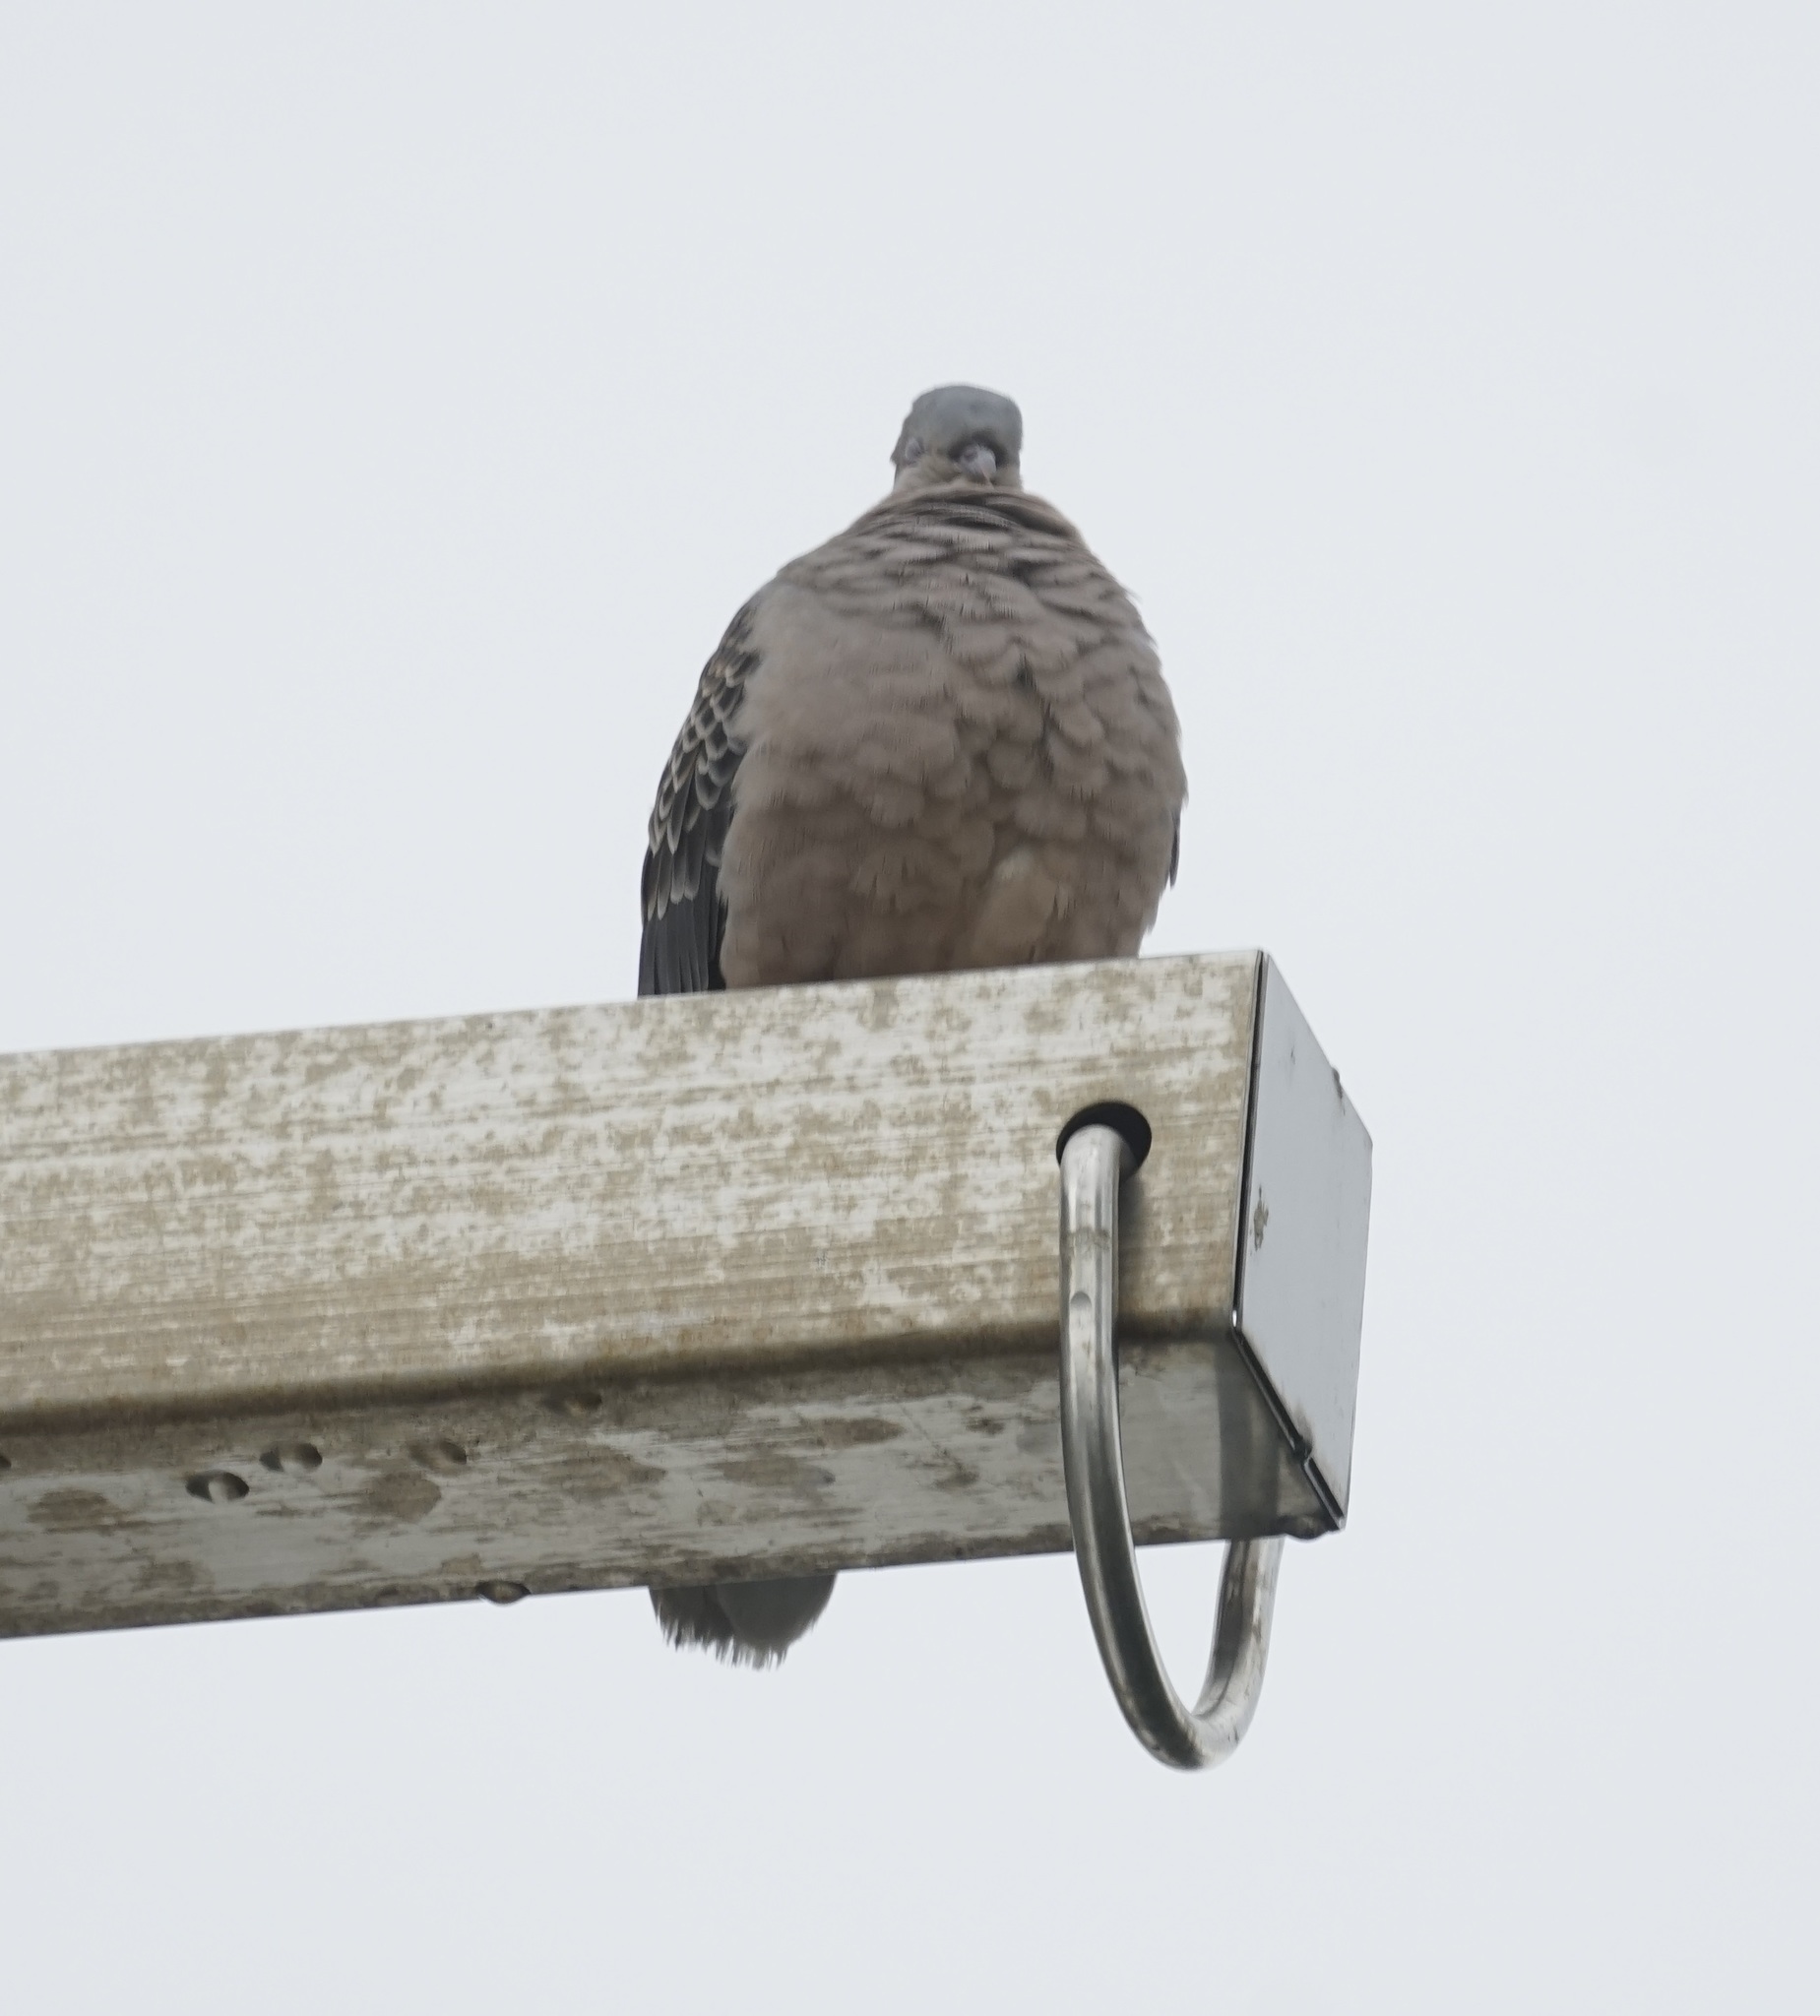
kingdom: Animalia
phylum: Chordata
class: Aves
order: Columbiformes
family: Columbidae
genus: Streptopelia
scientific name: Streptopelia orientalis
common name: Oriental turtle dove
